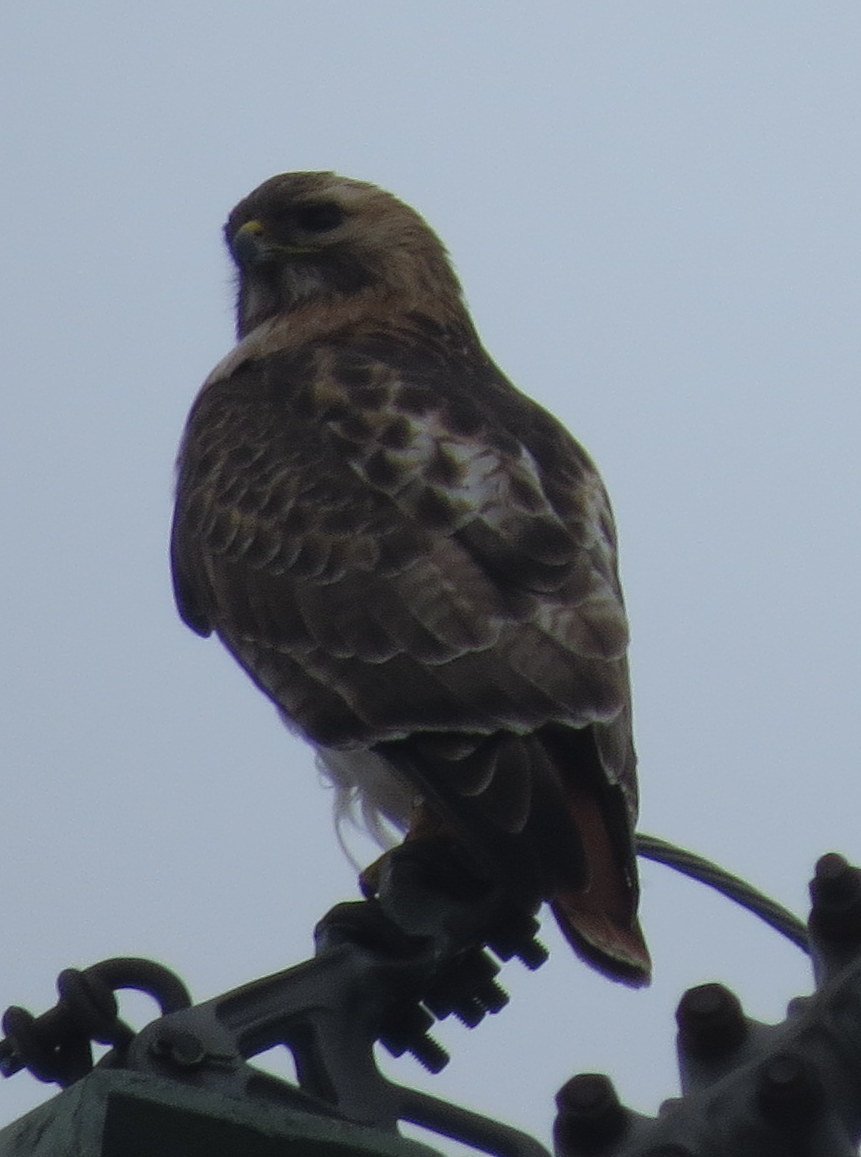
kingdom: Animalia
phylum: Chordata
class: Aves
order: Accipitriformes
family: Accipitridae
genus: Buteo
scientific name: Buteo jamaicensis
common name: Red-tailed hawk
